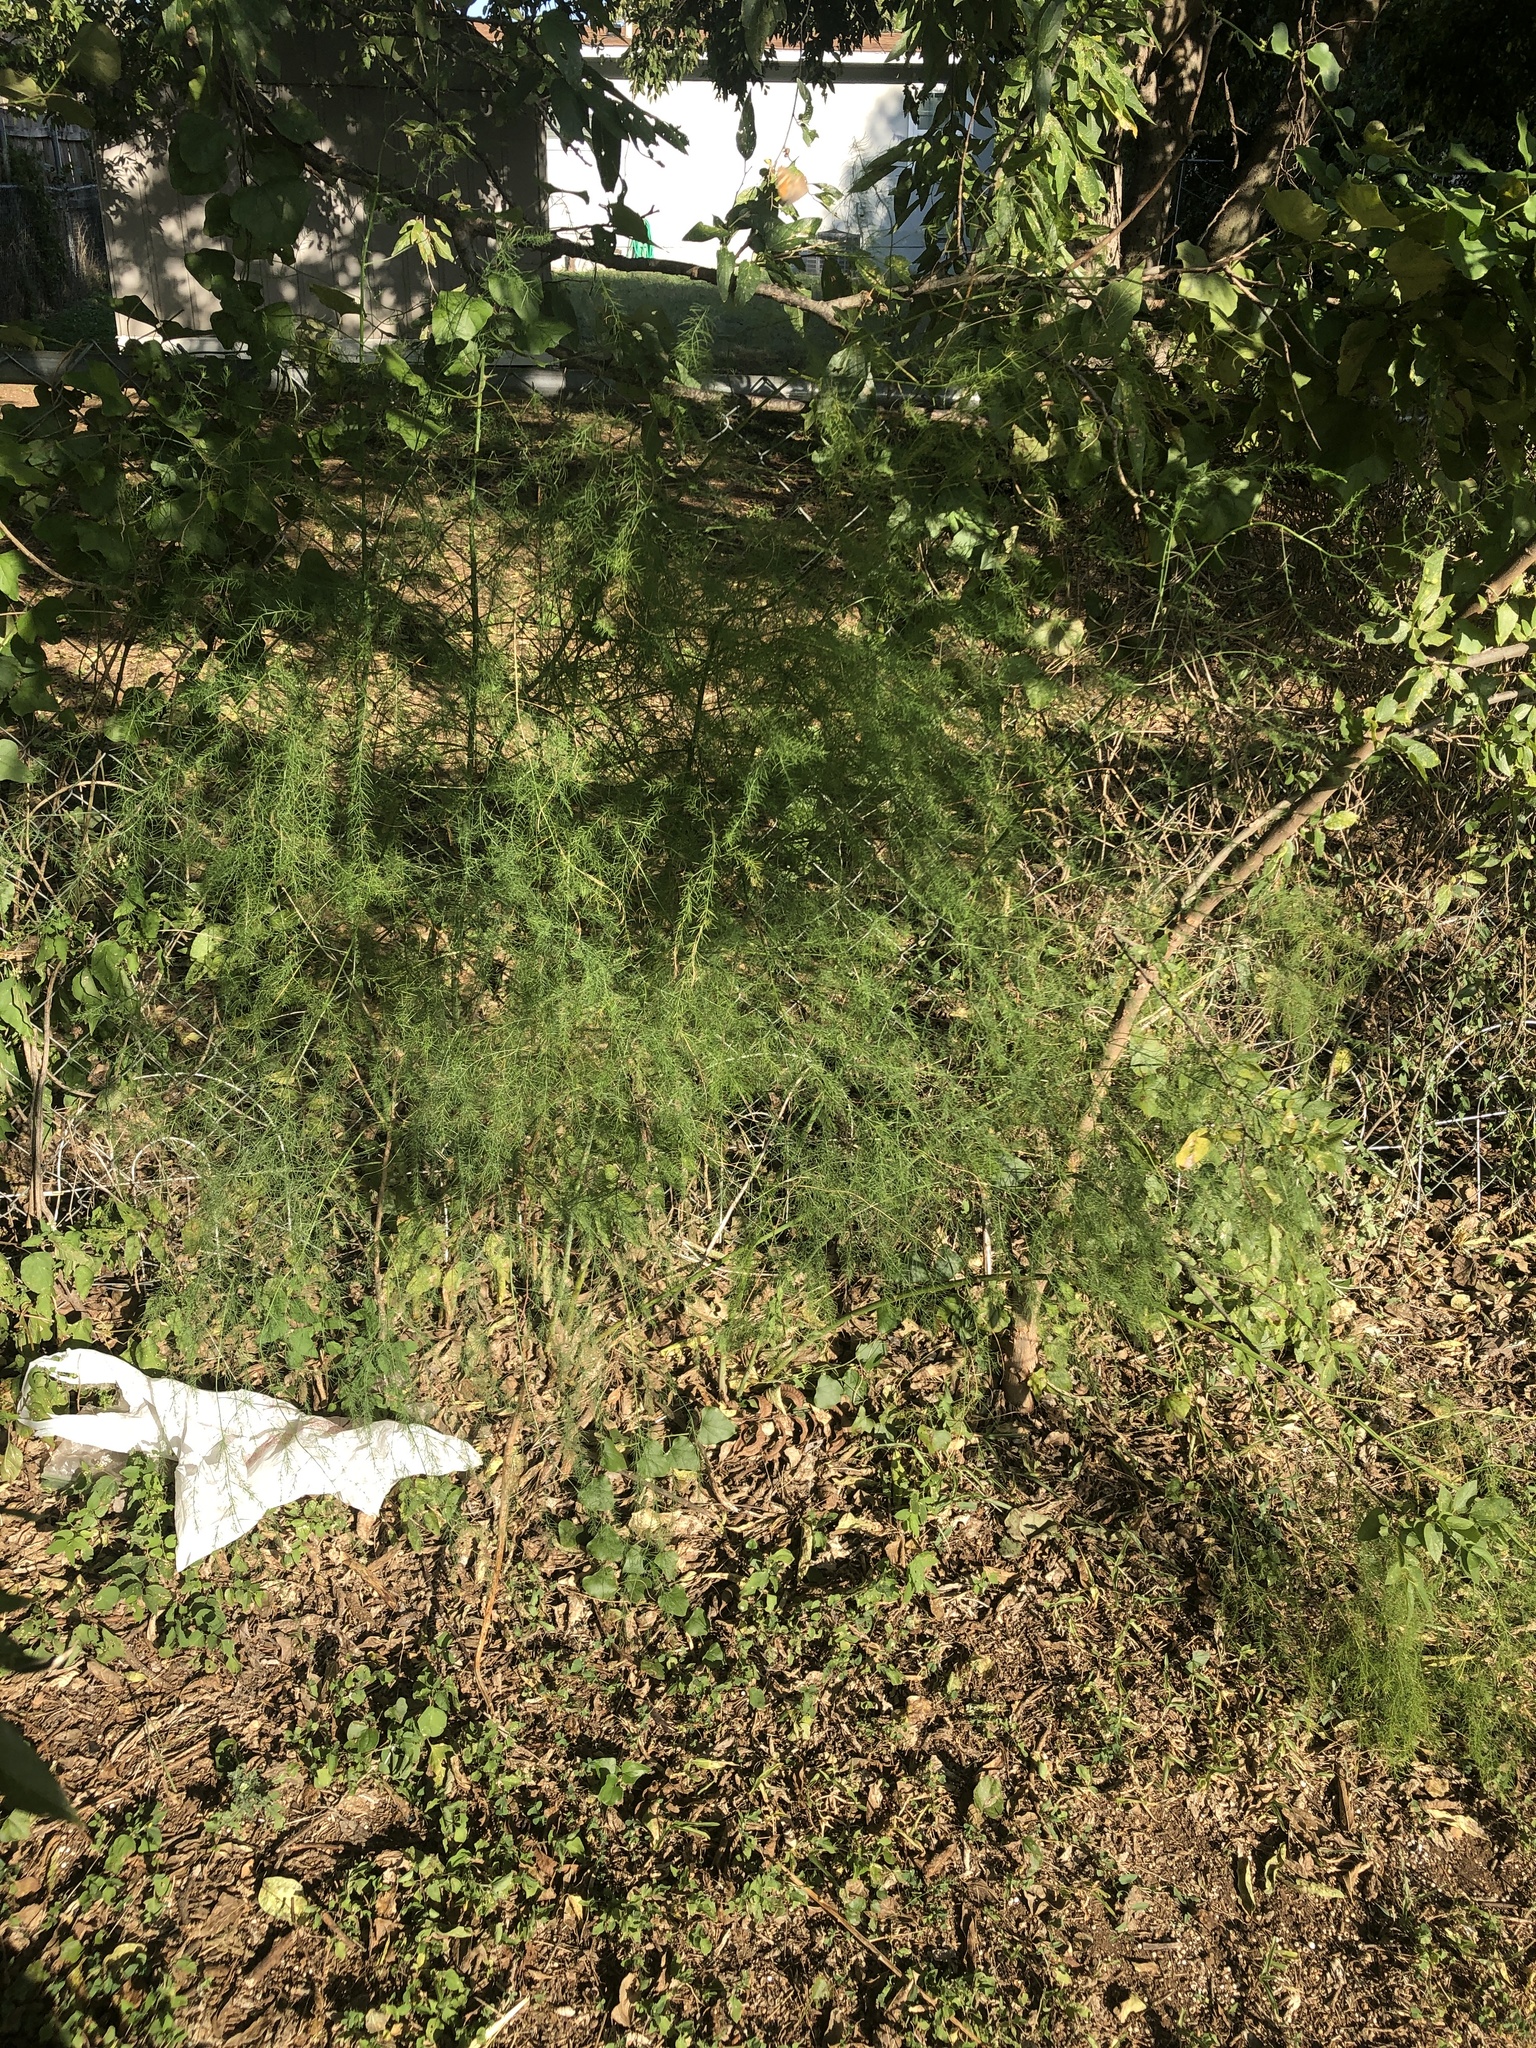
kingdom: Plantae
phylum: Tracheophyta
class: Liliopsida
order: Asparagales
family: Asparagaceae
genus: Asparagus
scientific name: Asparagus officinalis
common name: Garden asparagus
